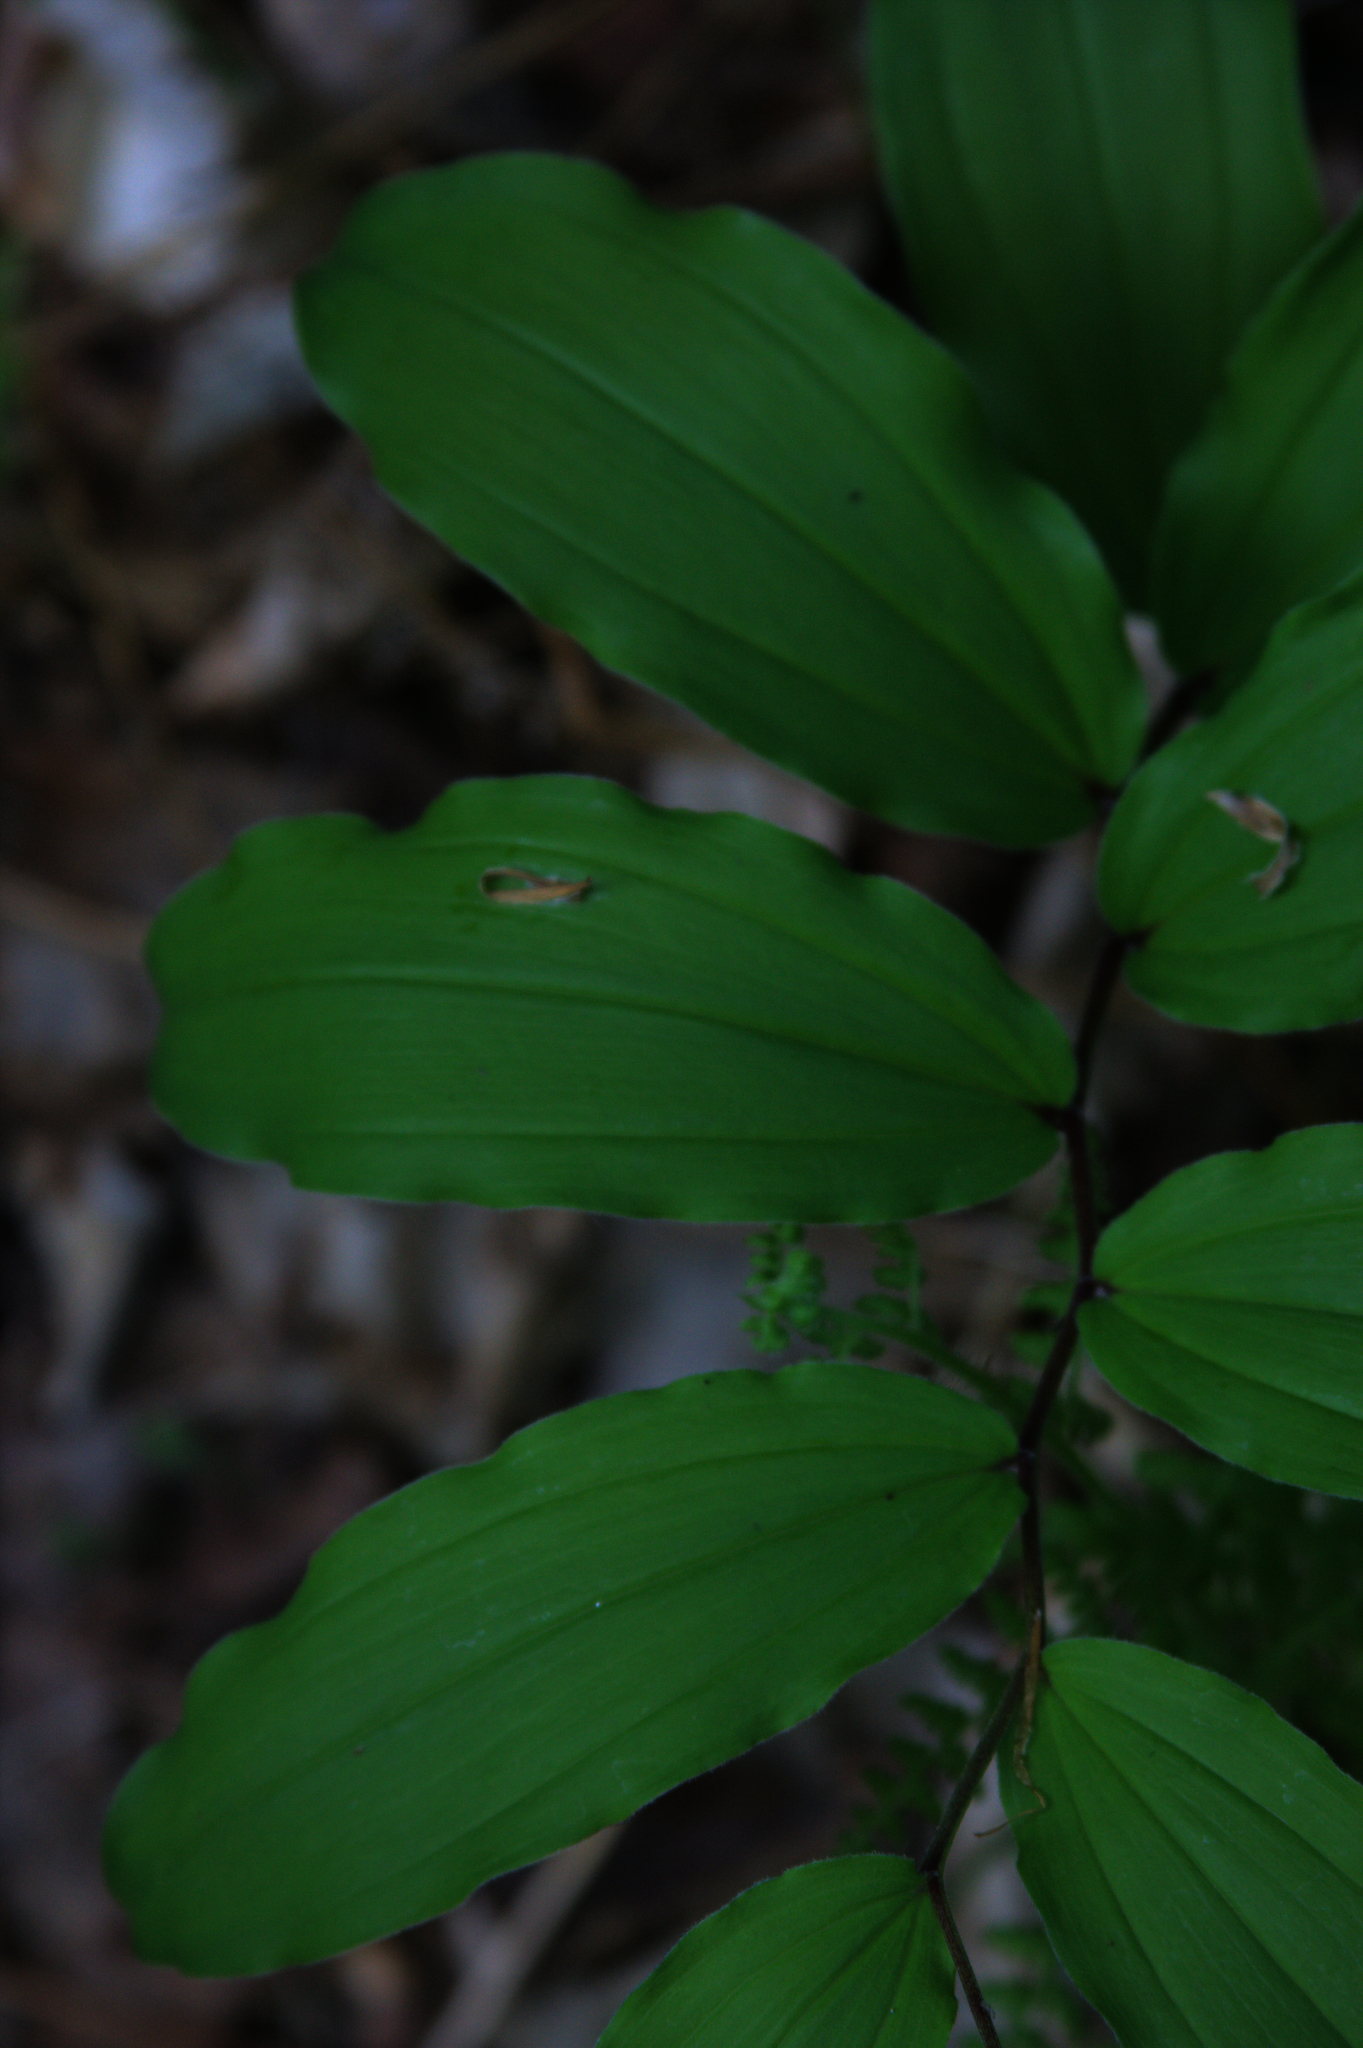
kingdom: Plantae
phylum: Tracheophyta
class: Liliopsida
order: Asparagales
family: Asparagaceae
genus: Maianthemum
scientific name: Maianthemum racemosum
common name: False spikenard
